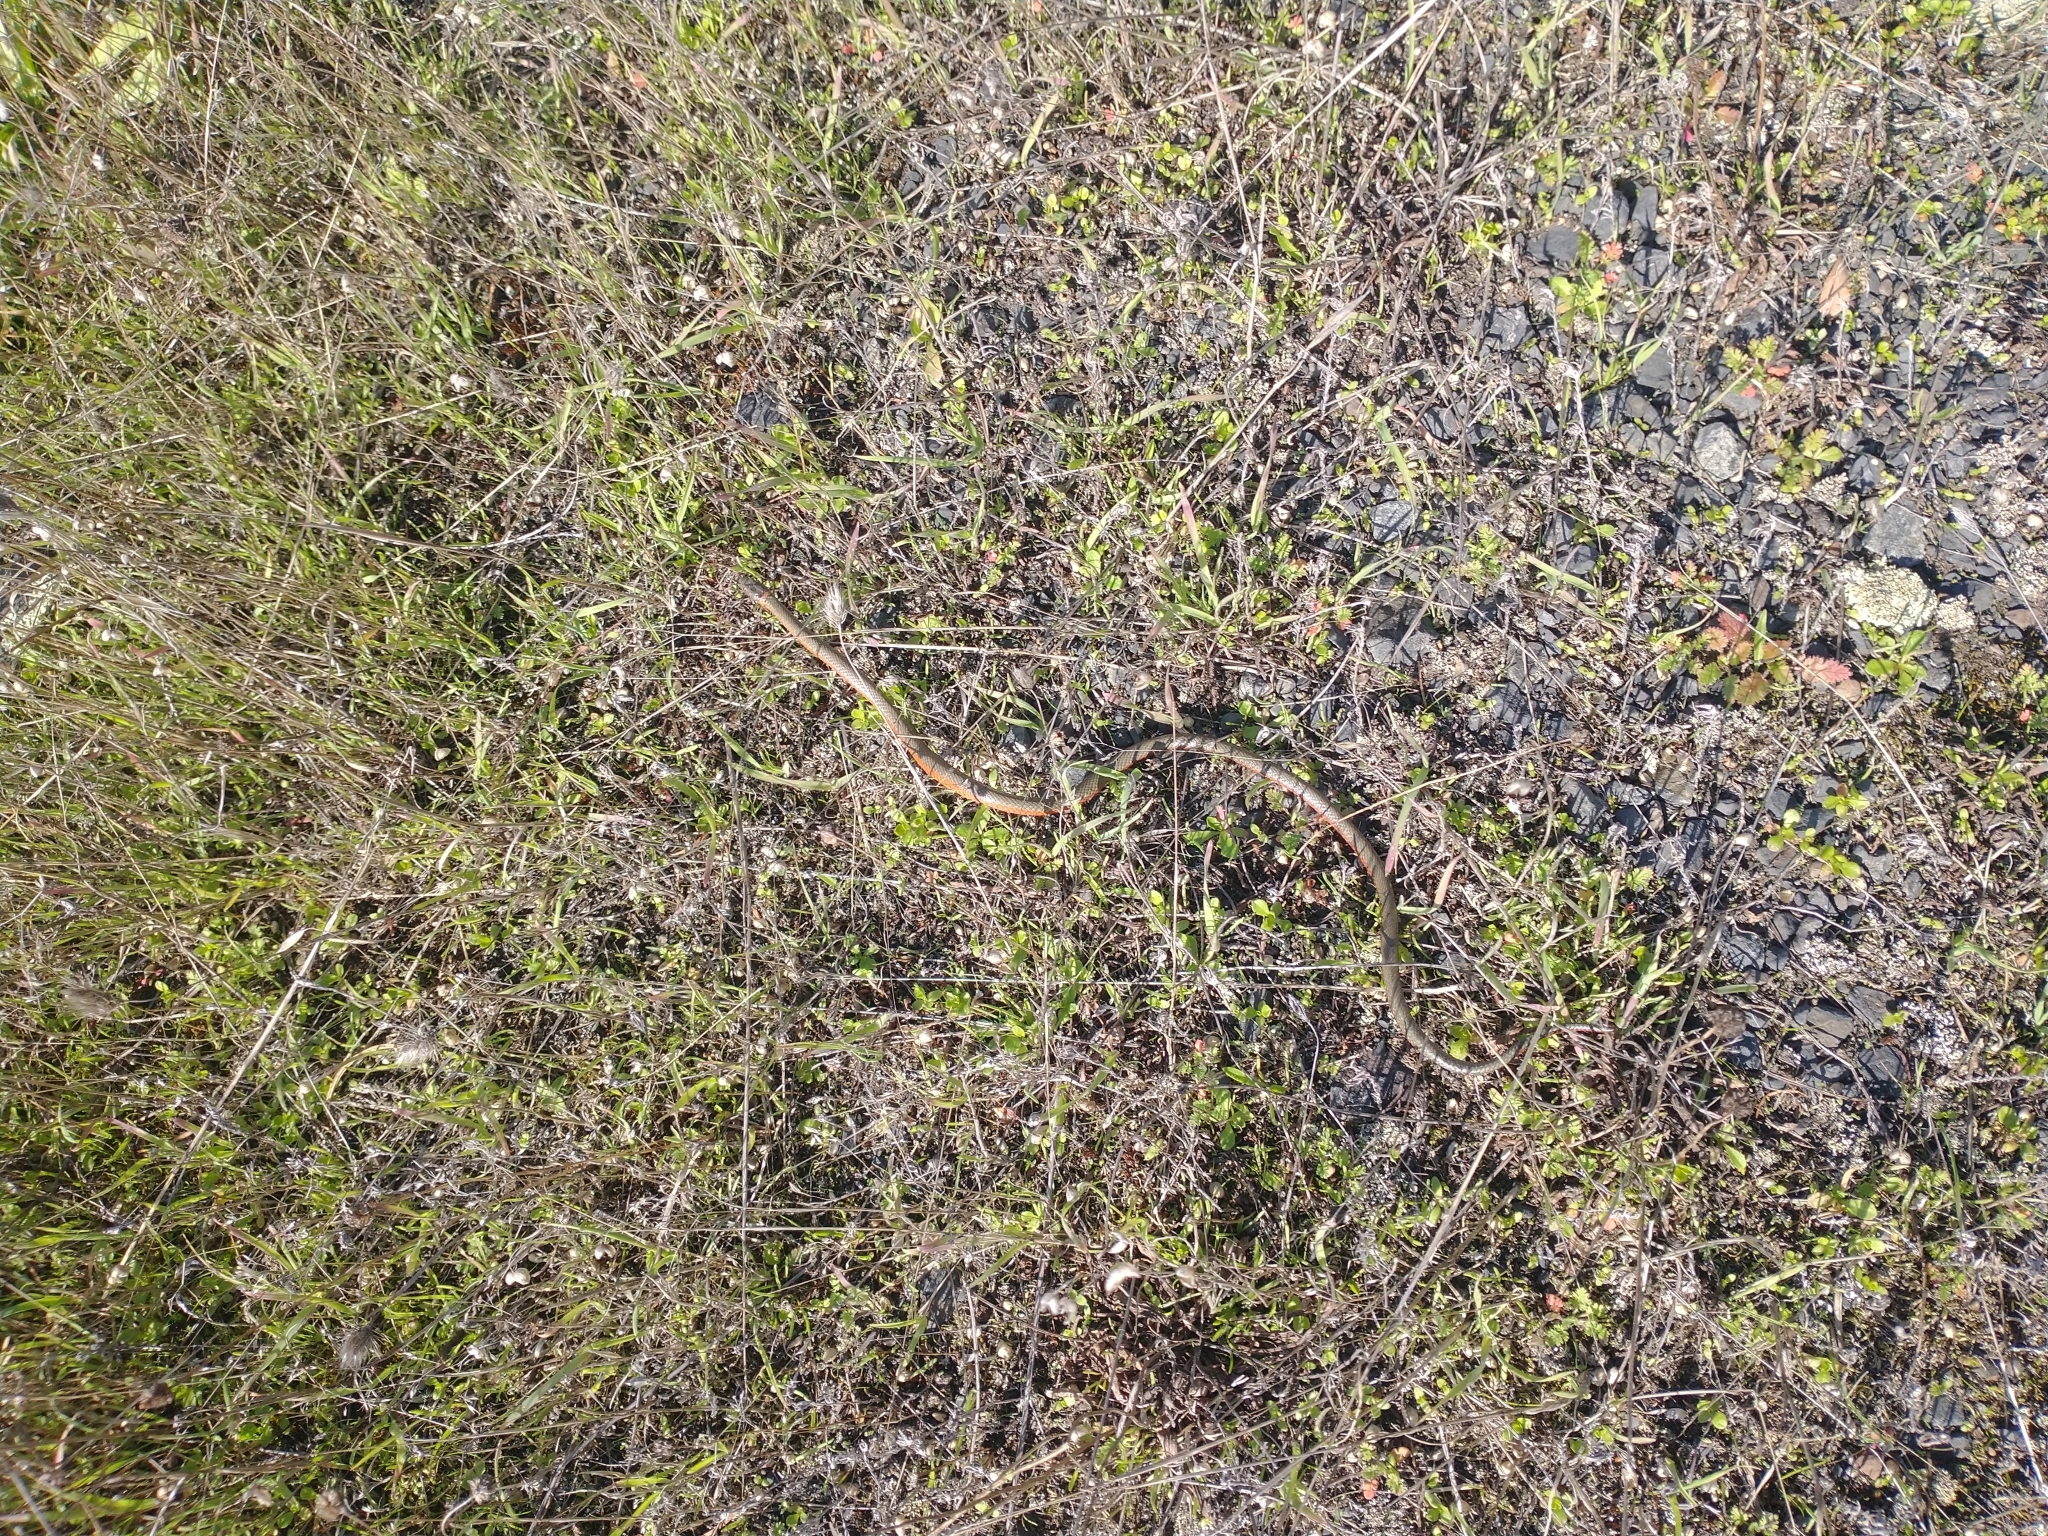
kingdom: Animalia
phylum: Chordata
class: Squamata
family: Colubridae
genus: Diadophis
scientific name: Diadophis punctatus
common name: Ringneck snake
